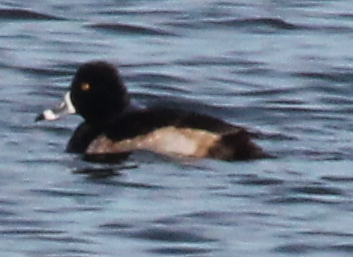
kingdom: Animalia
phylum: Chordata
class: Aves
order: Anseriformes
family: Anatidae
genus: Aythya
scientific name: Aythya collaris
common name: Ring-necked duck
